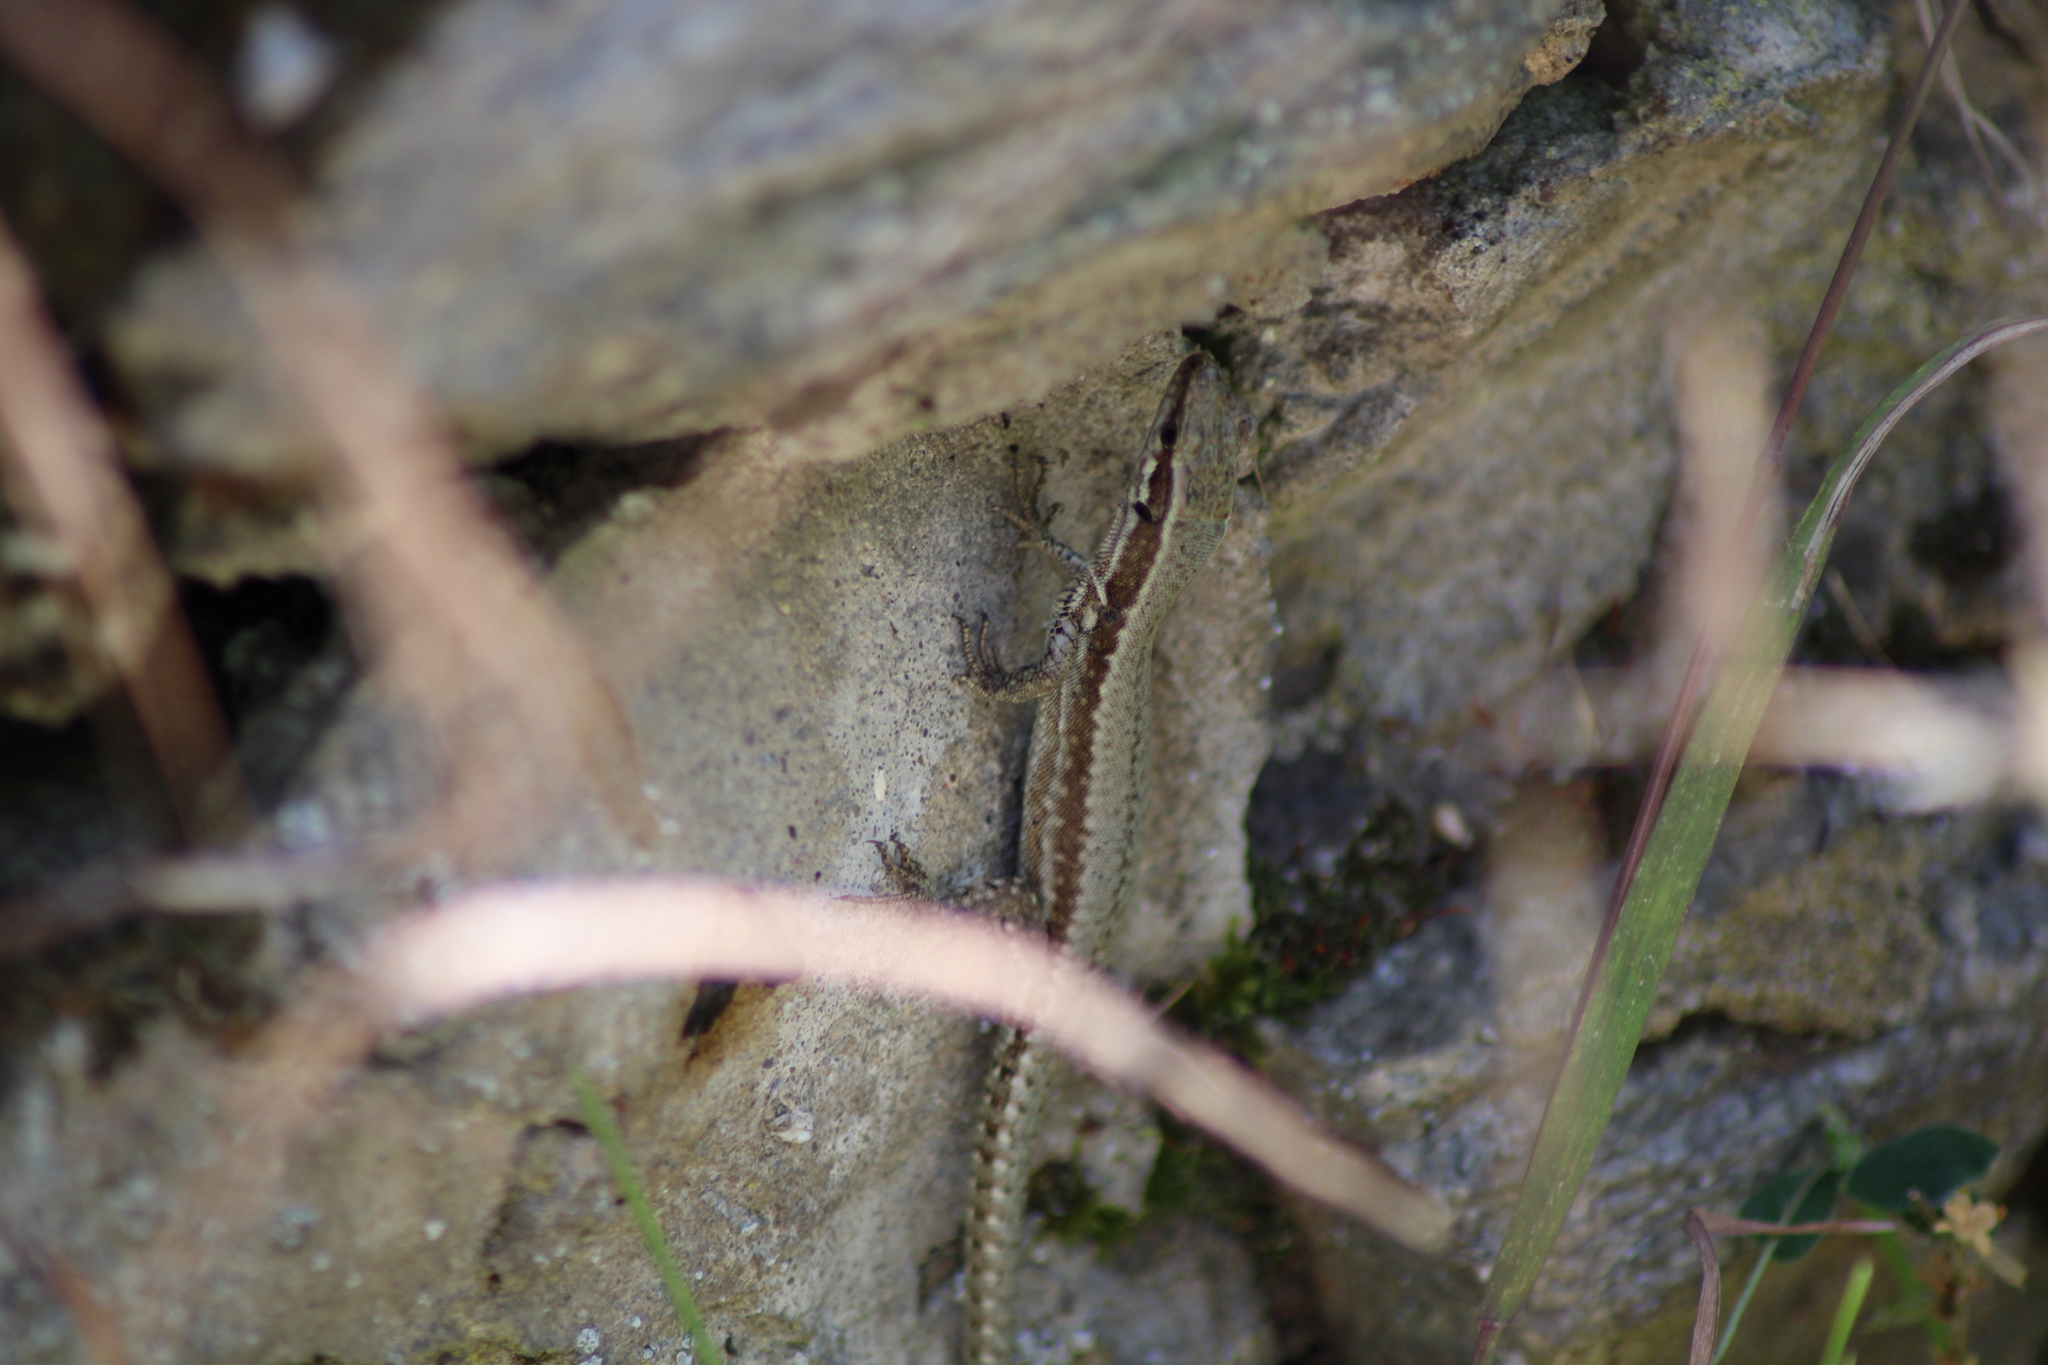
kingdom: Animalia
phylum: Chordata
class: Squamata
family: Lacertidae
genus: Podarcis
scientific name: Podarcis muralis
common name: Common wall lizard
